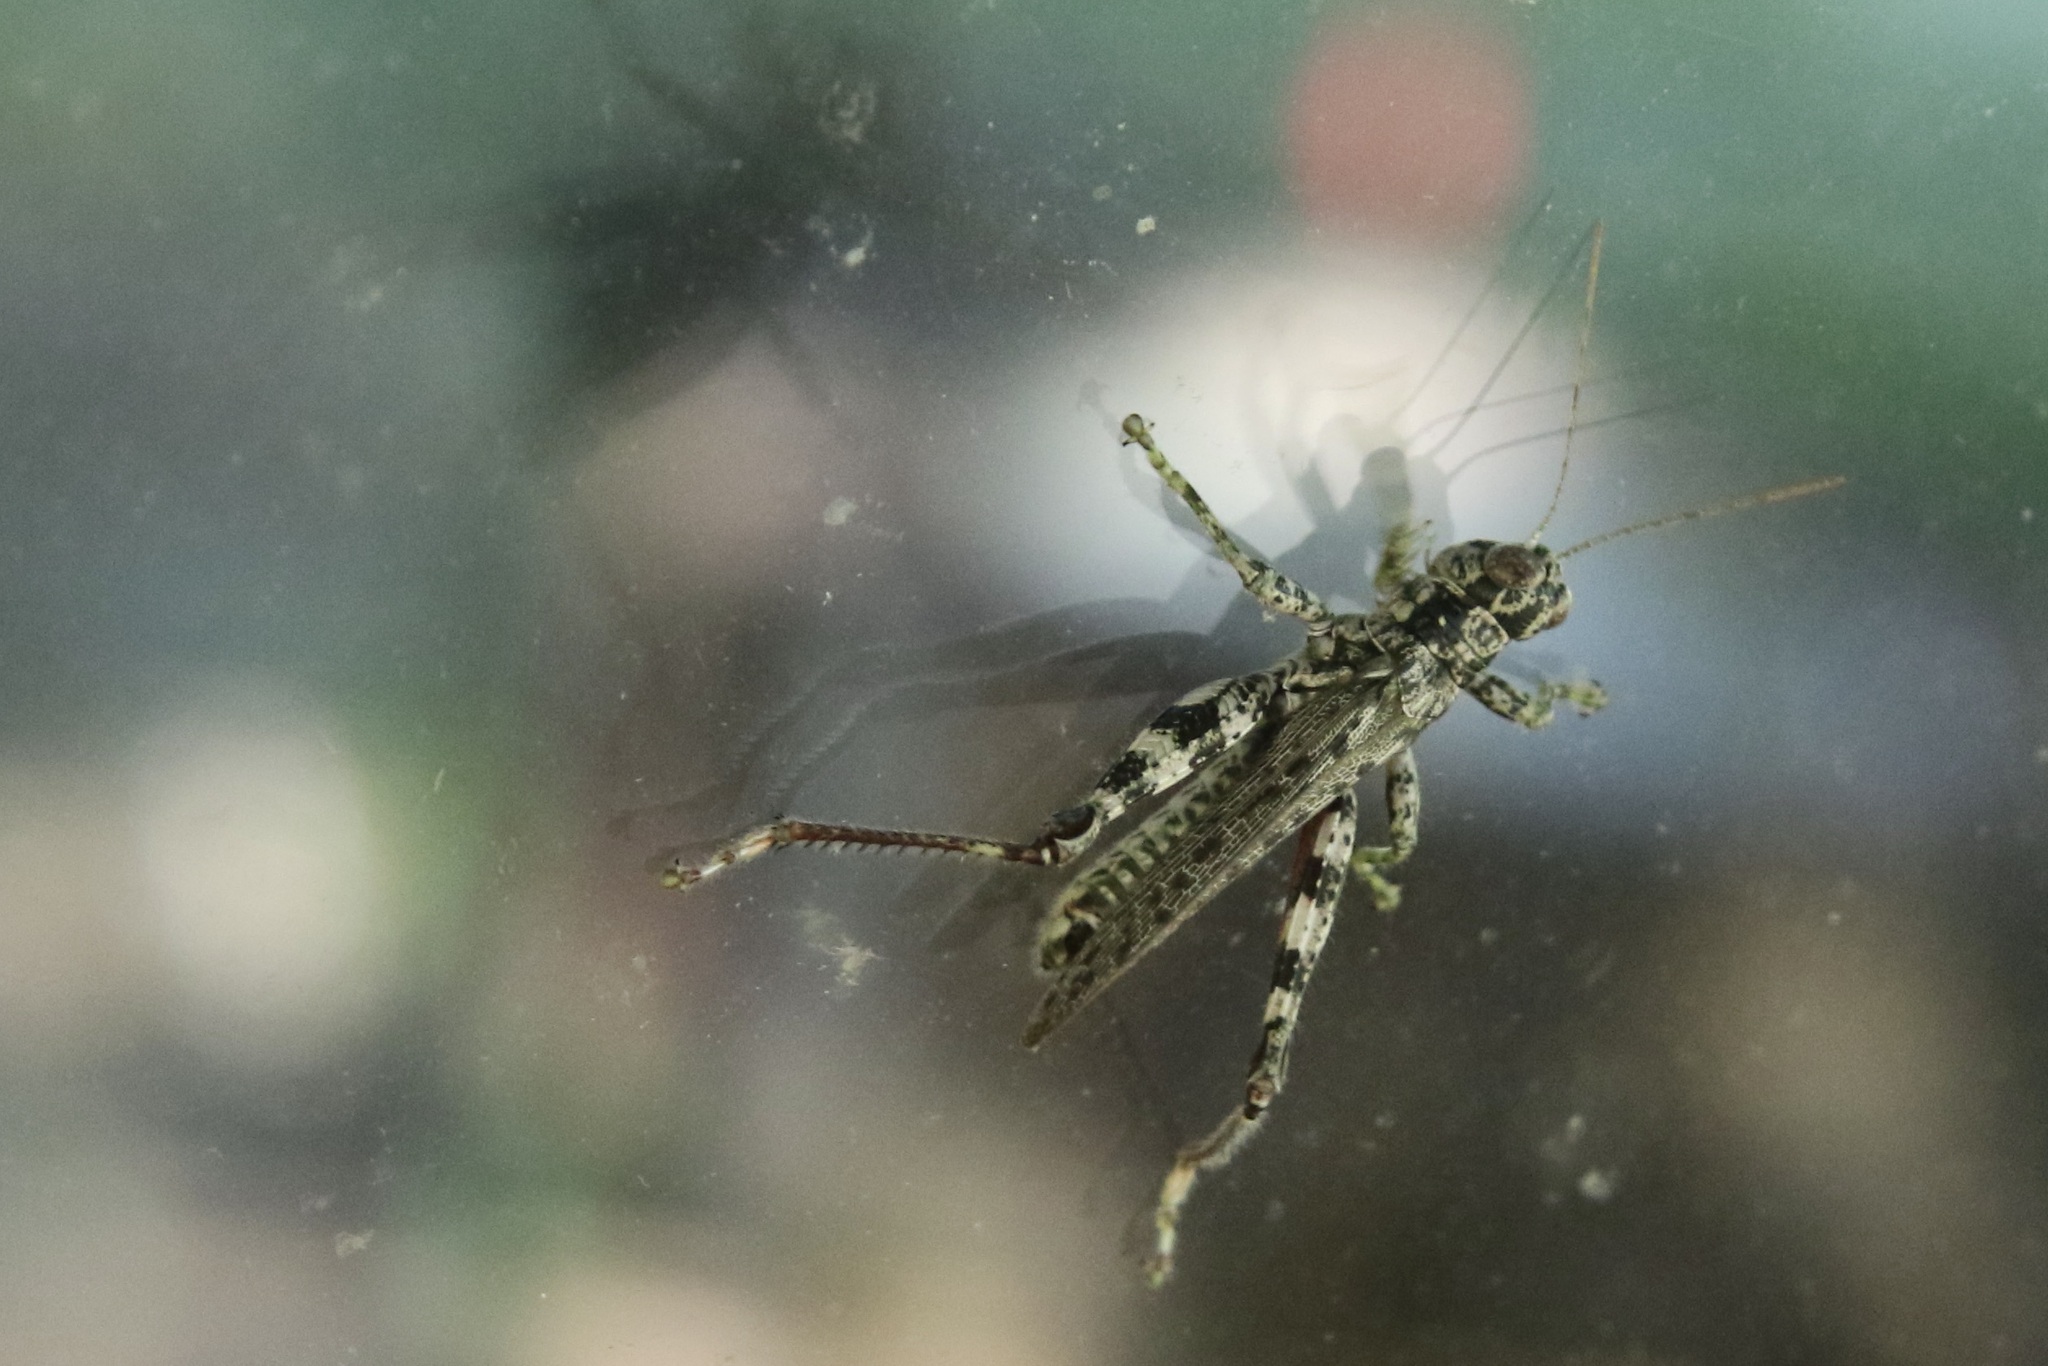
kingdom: Animalia
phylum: Arthropoda
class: Insecta
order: Orthoptera
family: Acrididae
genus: Melanoplus
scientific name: Melanoplus punctulatus
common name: Pine-tree spur-throat grasshopper
